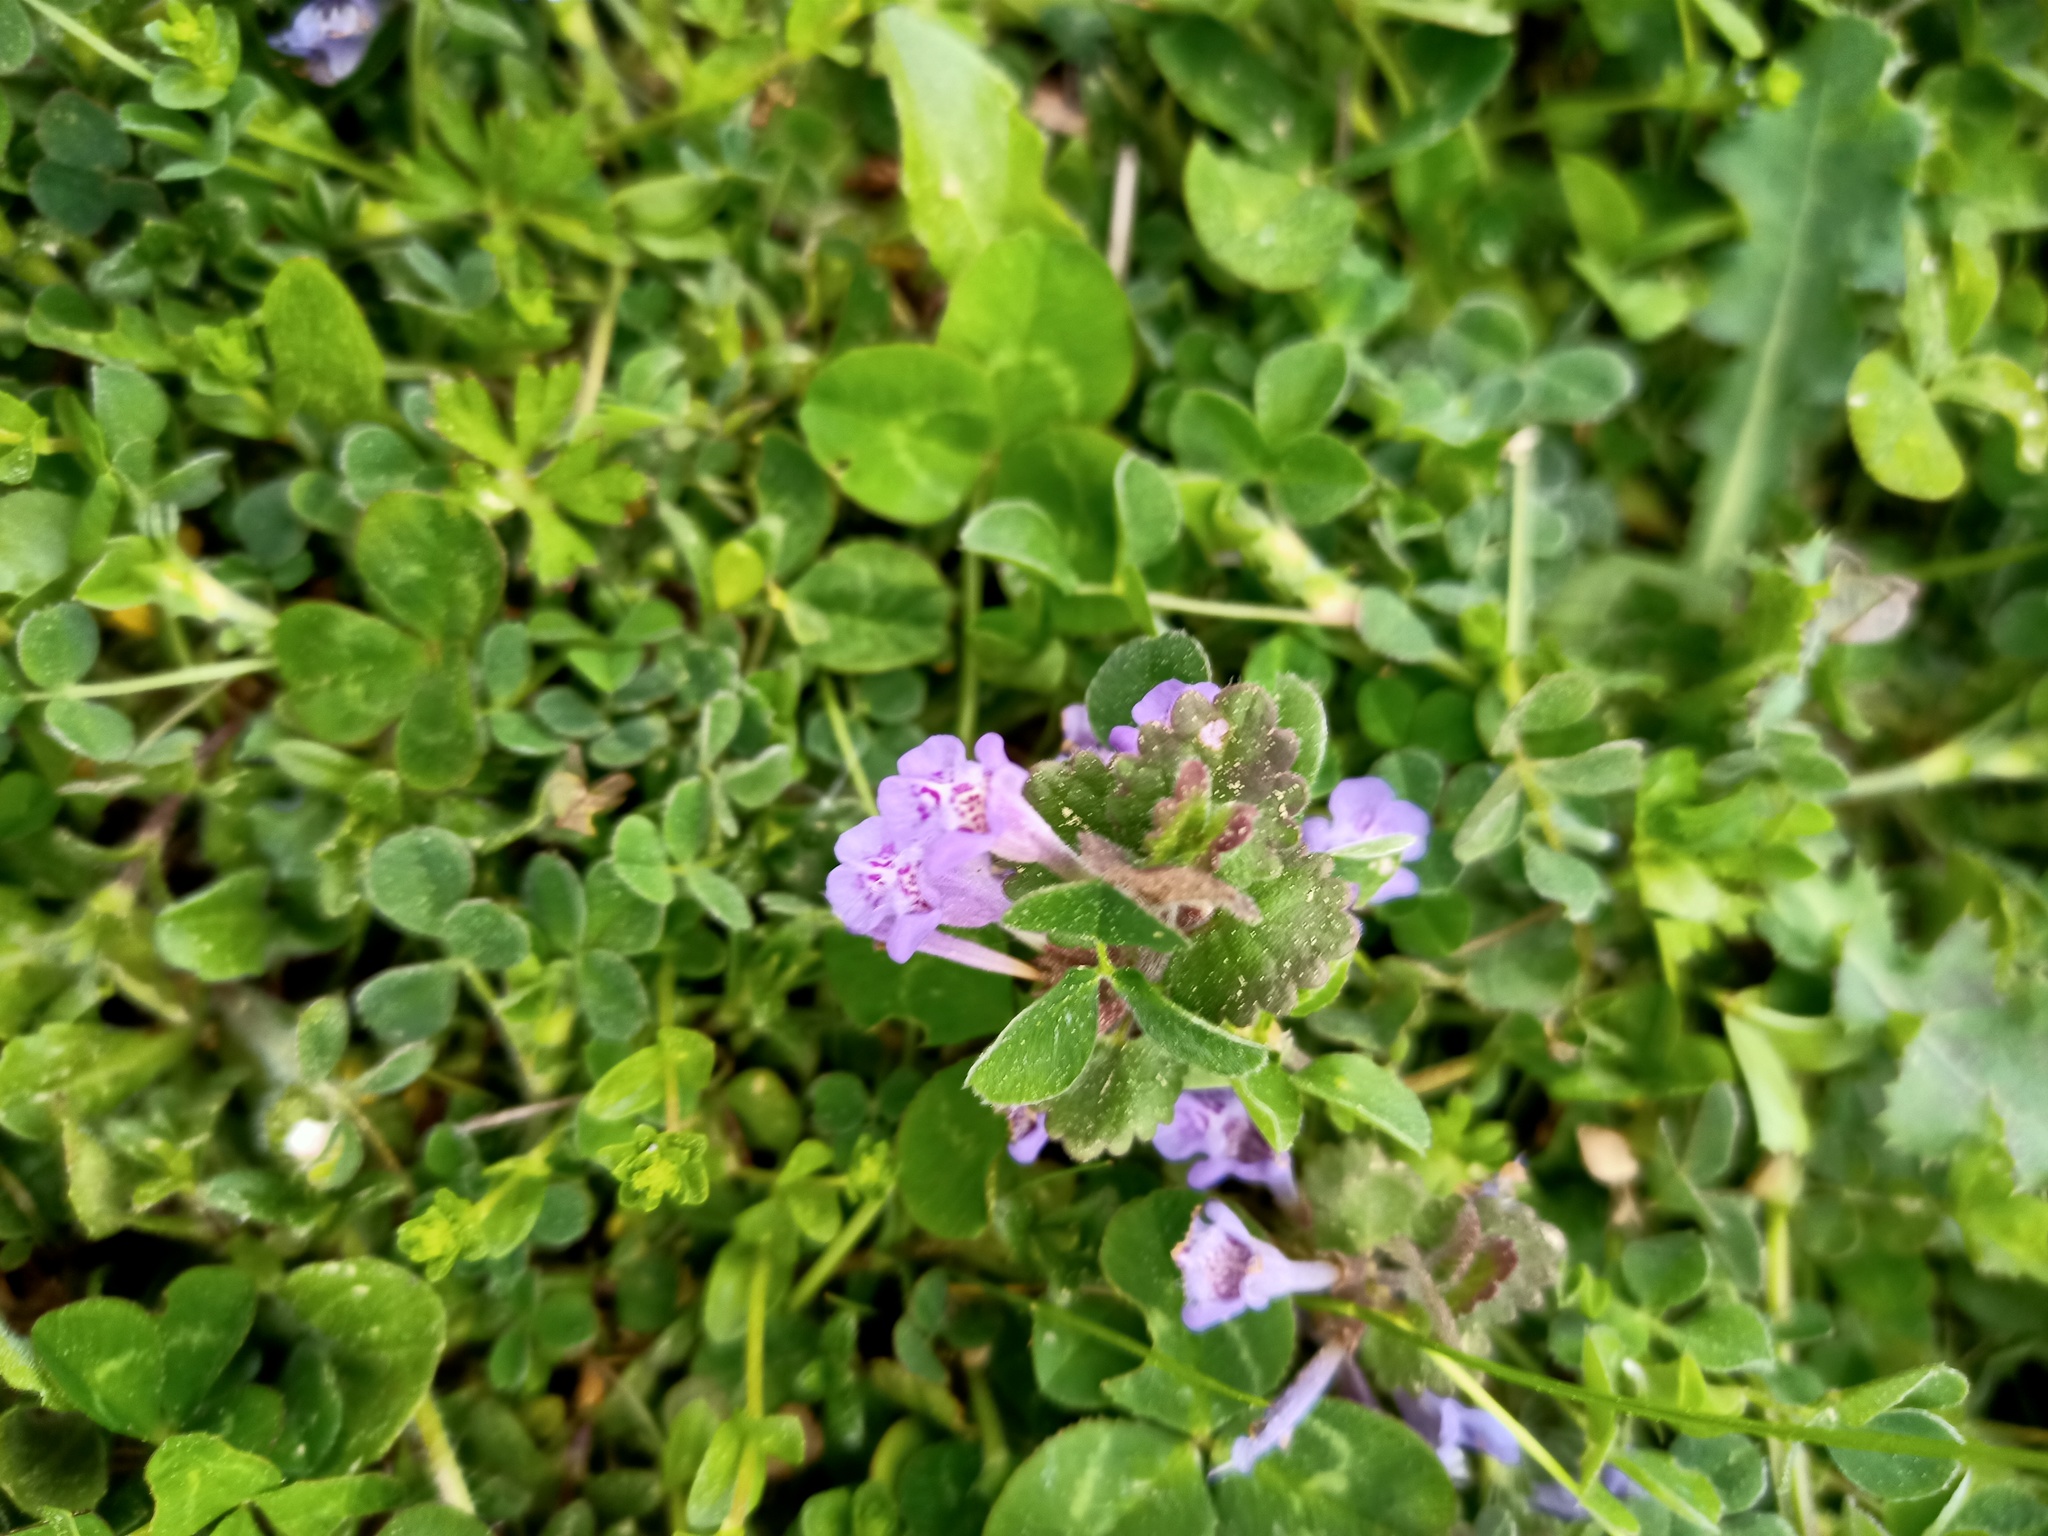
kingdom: Plantae
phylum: Tracheophyta
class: Magnoliopsida
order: Lamiales
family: Lamiaceae
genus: Glechoma
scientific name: Glechoma hederacea
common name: Ground ivy
